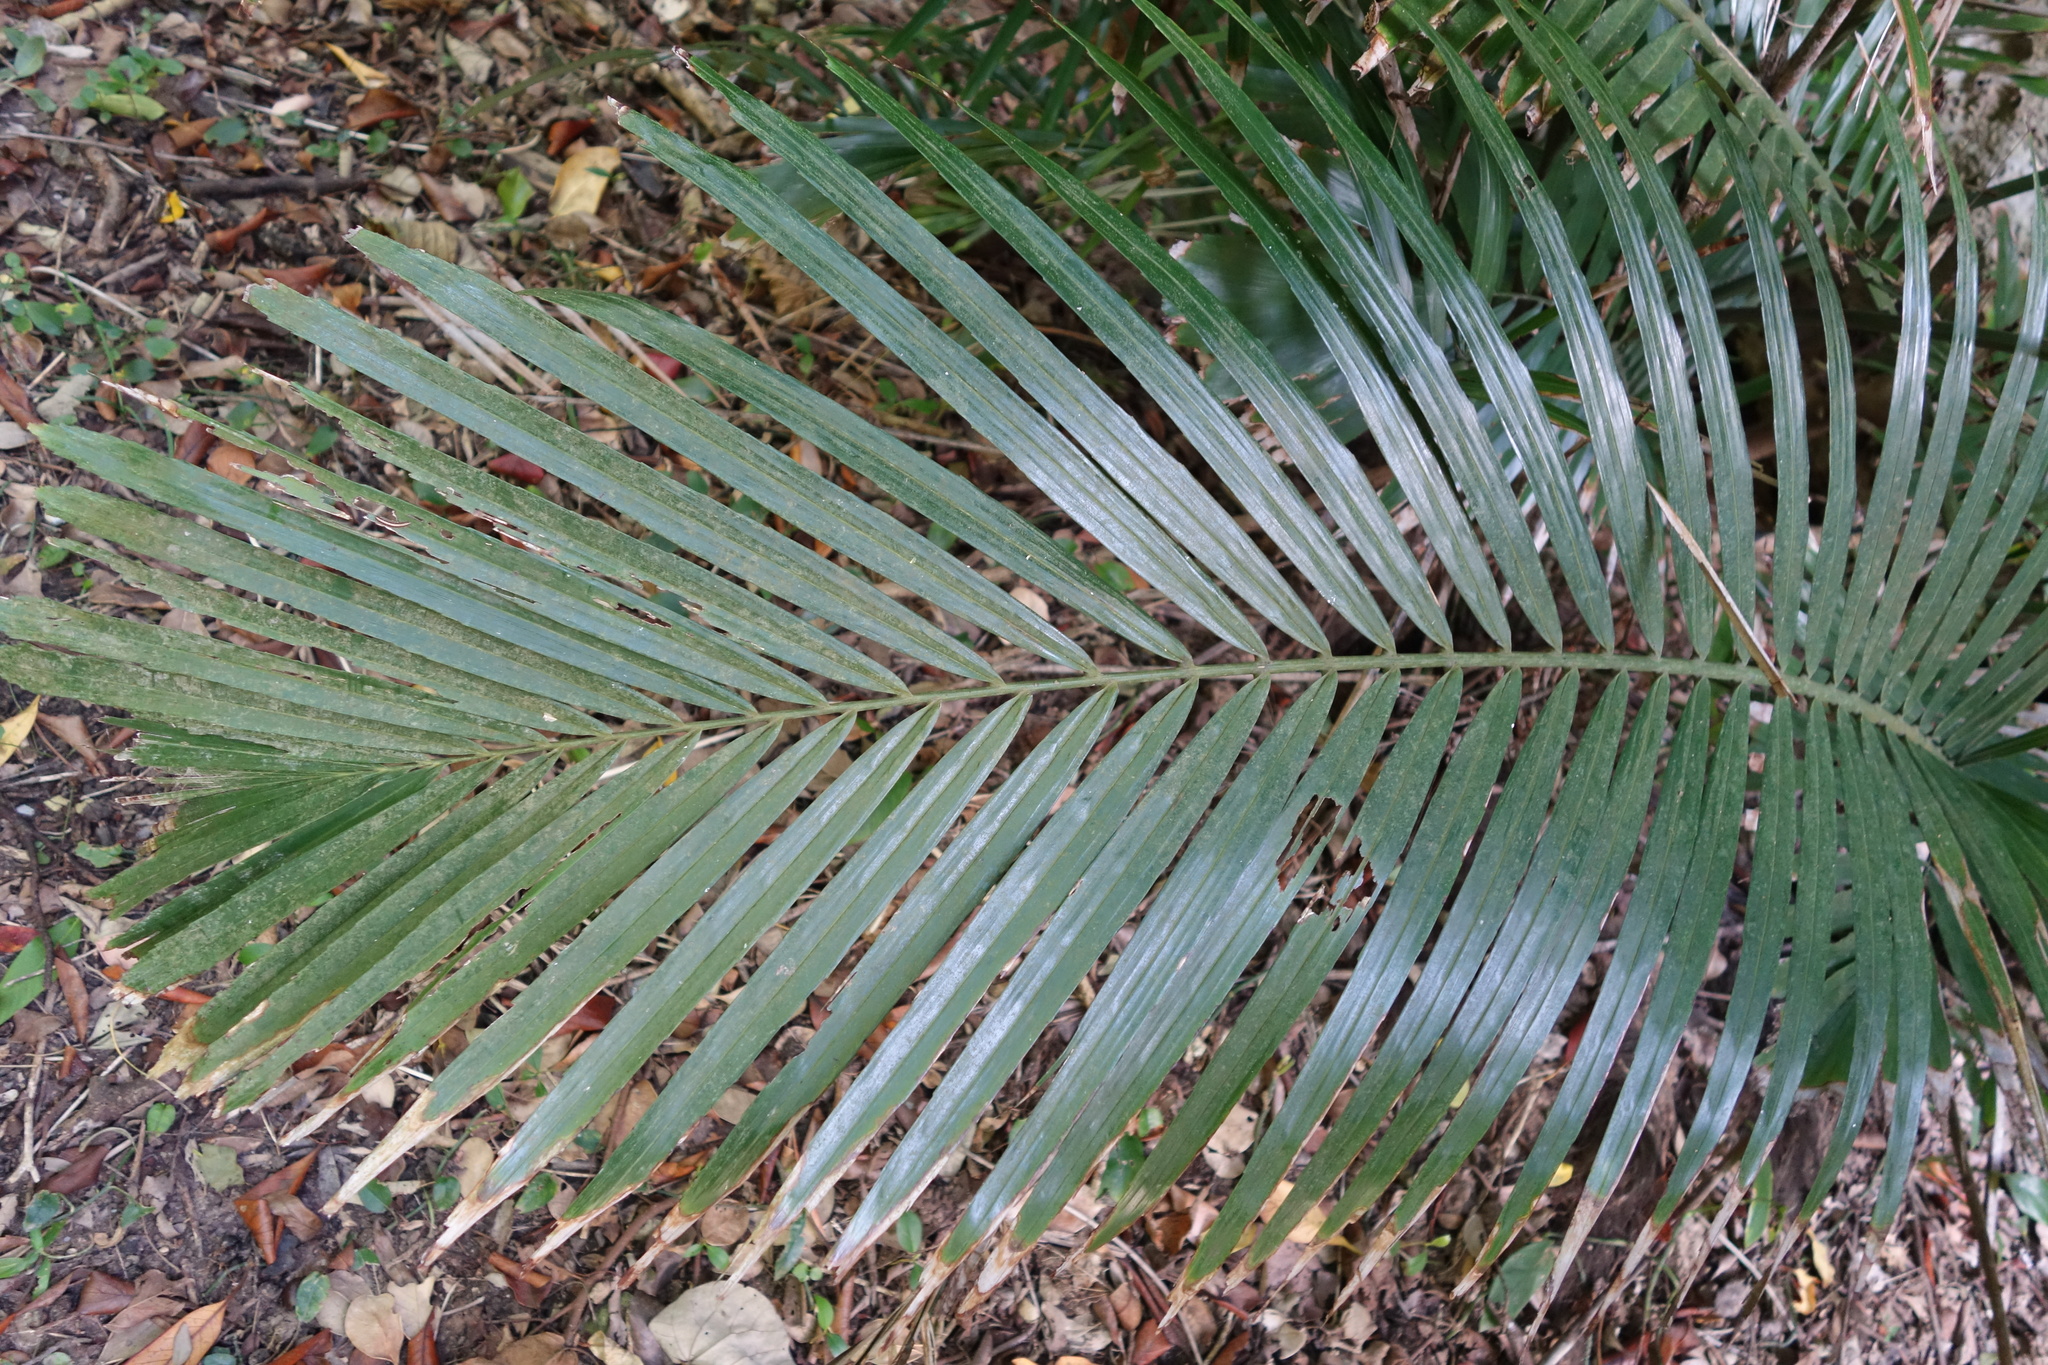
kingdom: Plantae
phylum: Tracheophyta
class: Liliopsida
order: Arecales
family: Arecaceae
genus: Arenga
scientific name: Arenga engleri
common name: Formosan sugar palm
